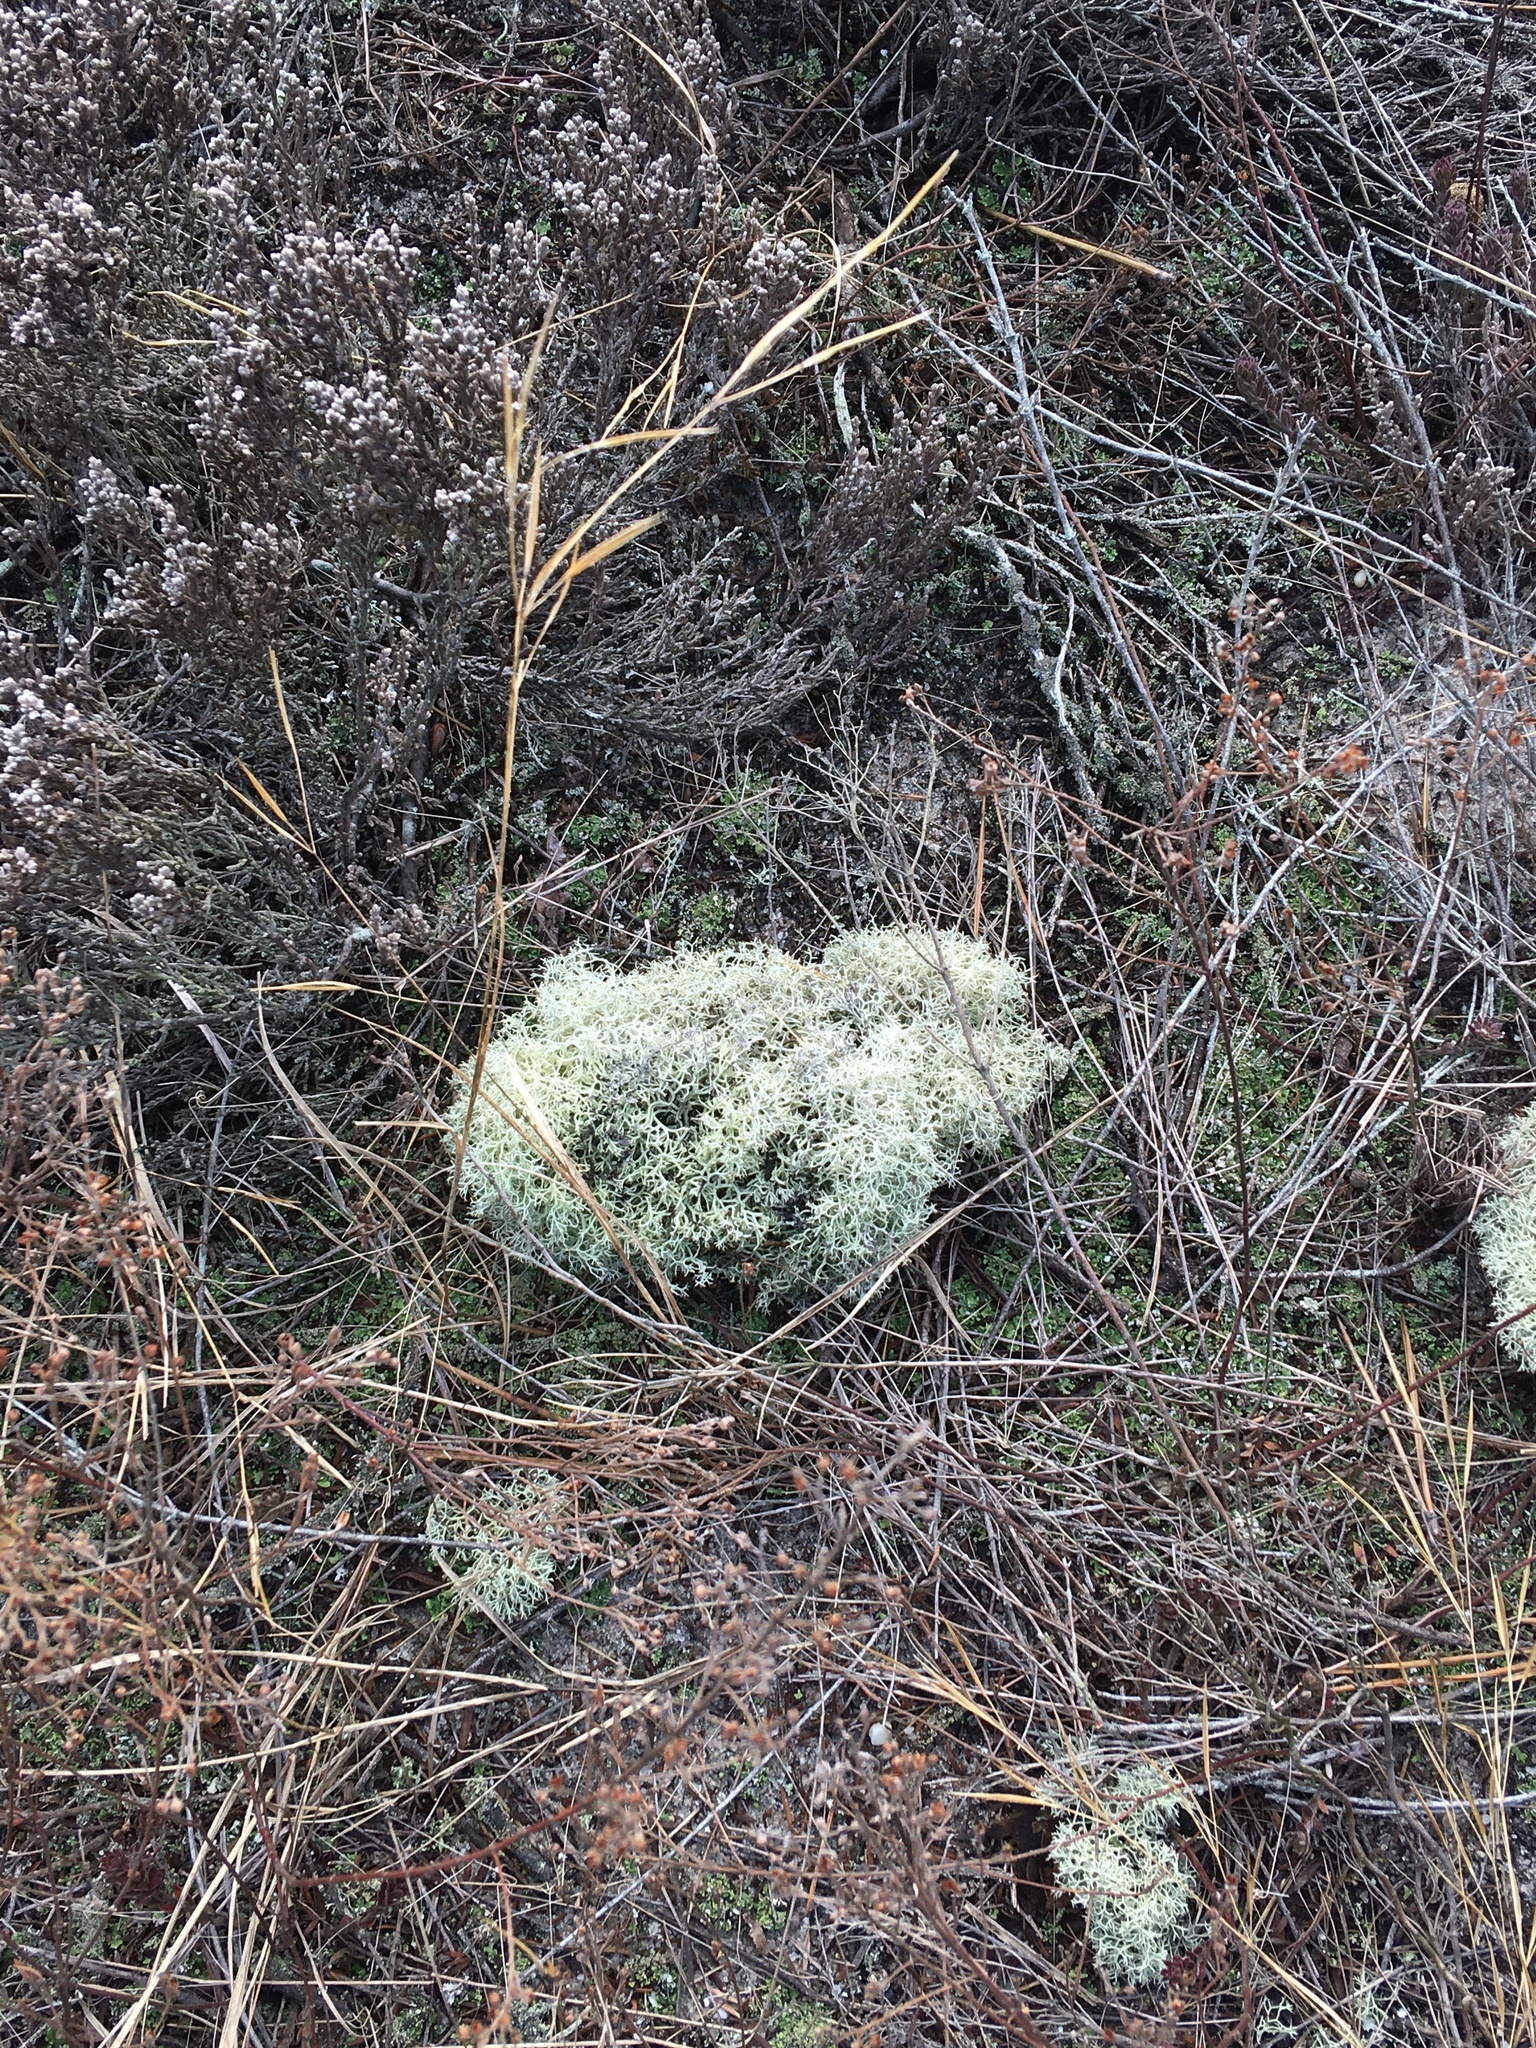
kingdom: Fungi
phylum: Ascomycota
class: Lecanoromycetes
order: Lecanorales
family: Cladoniaceae
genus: Cladonia
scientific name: Cladonia subtenuis
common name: Dixie reindeer lichen
